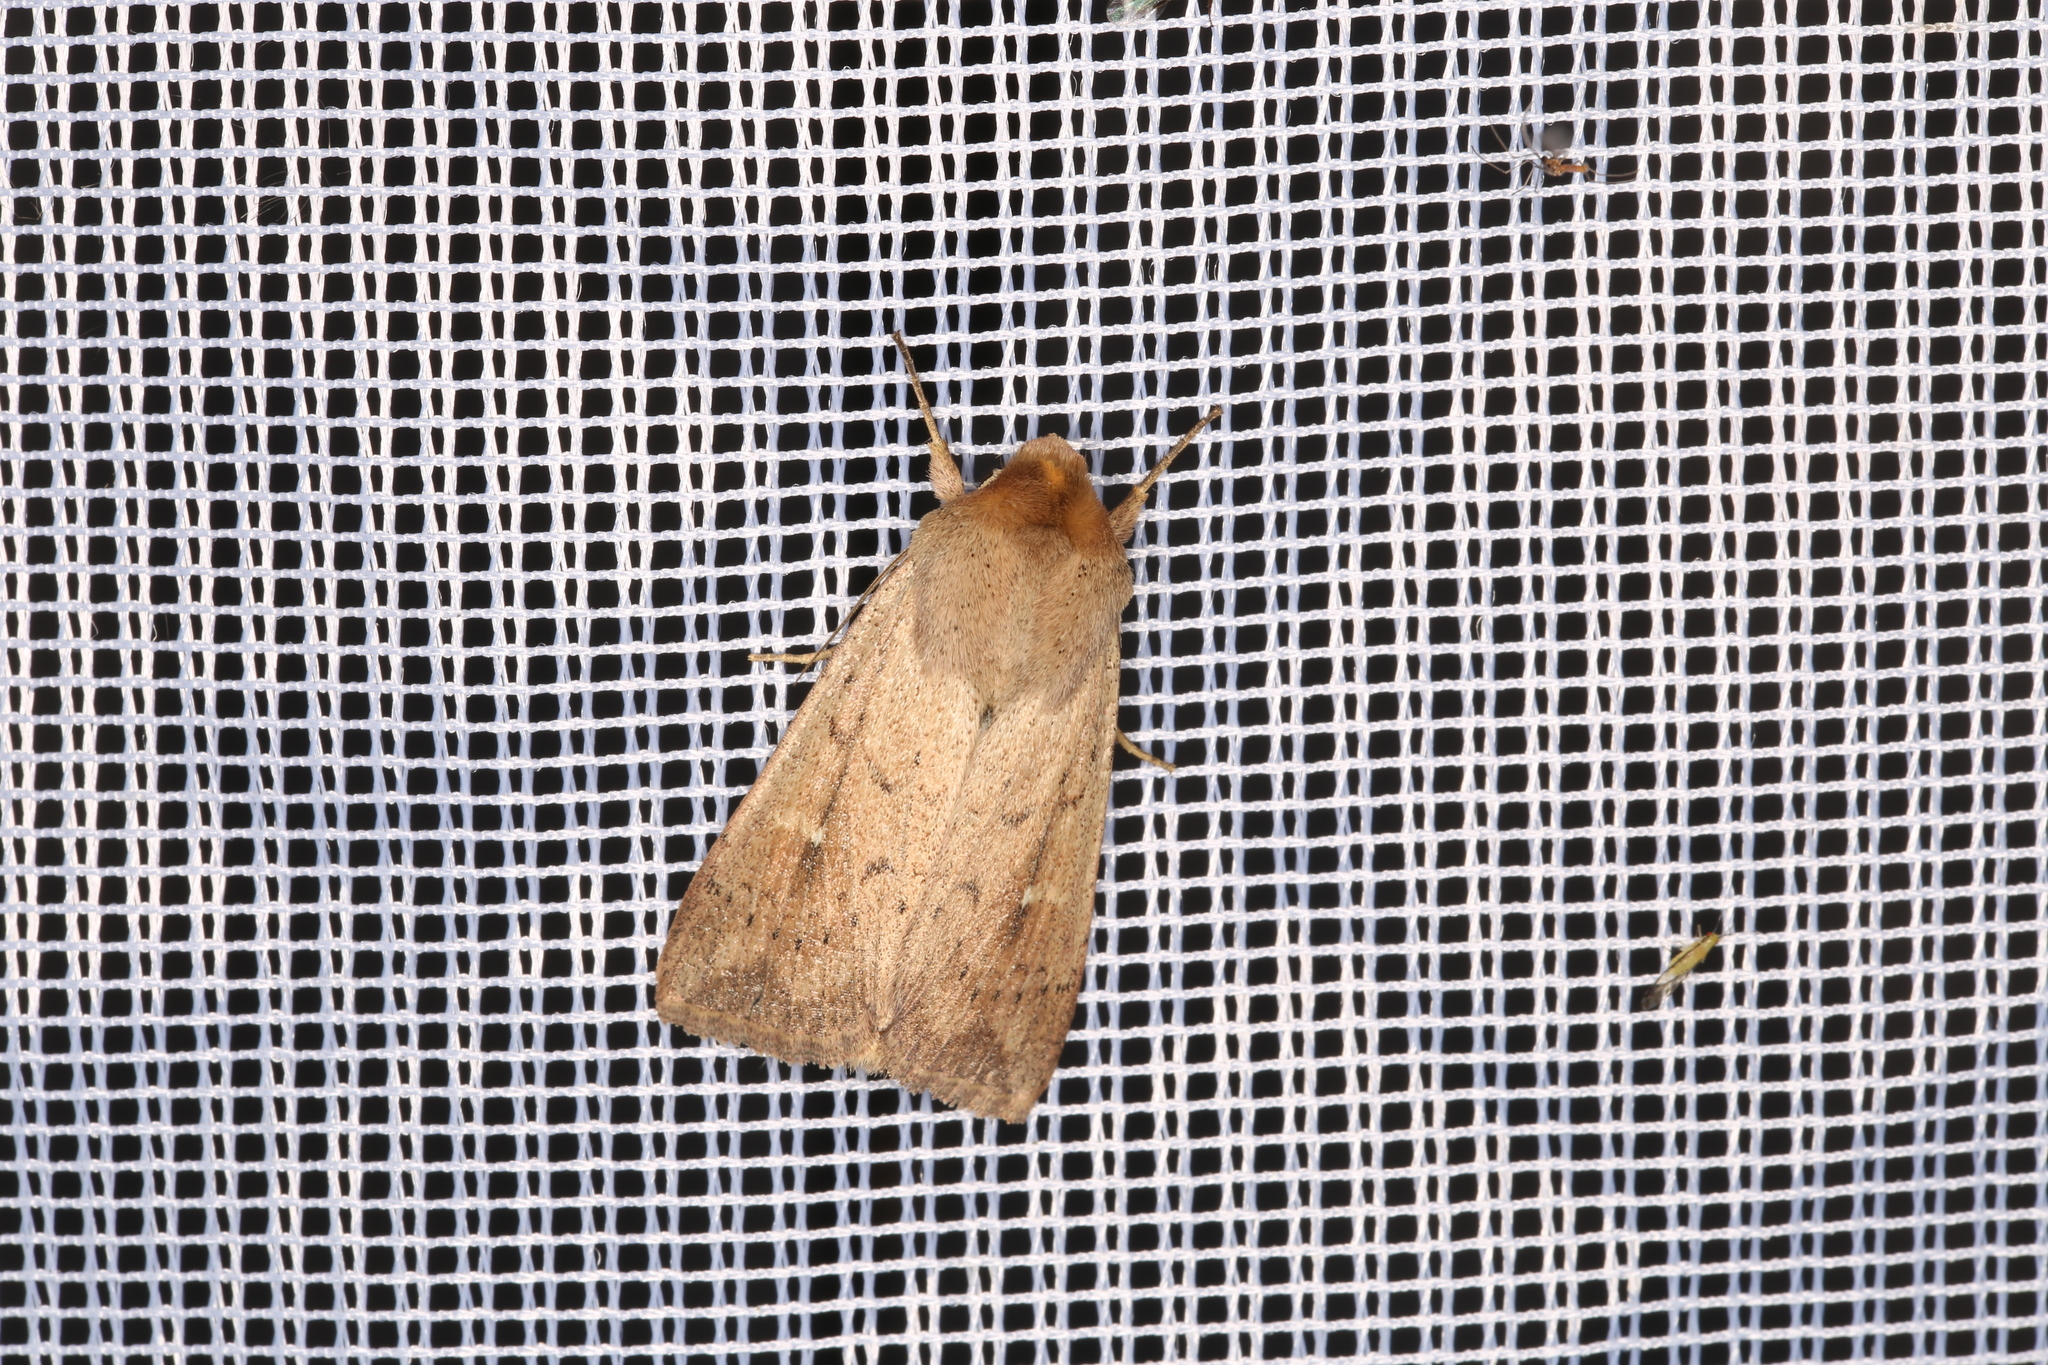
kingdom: Animalia
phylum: Arthropoda
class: Insecta
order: Lepidoptera
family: Noctuidae
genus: Mythimna
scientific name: Mythimna ferrago
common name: Clay
